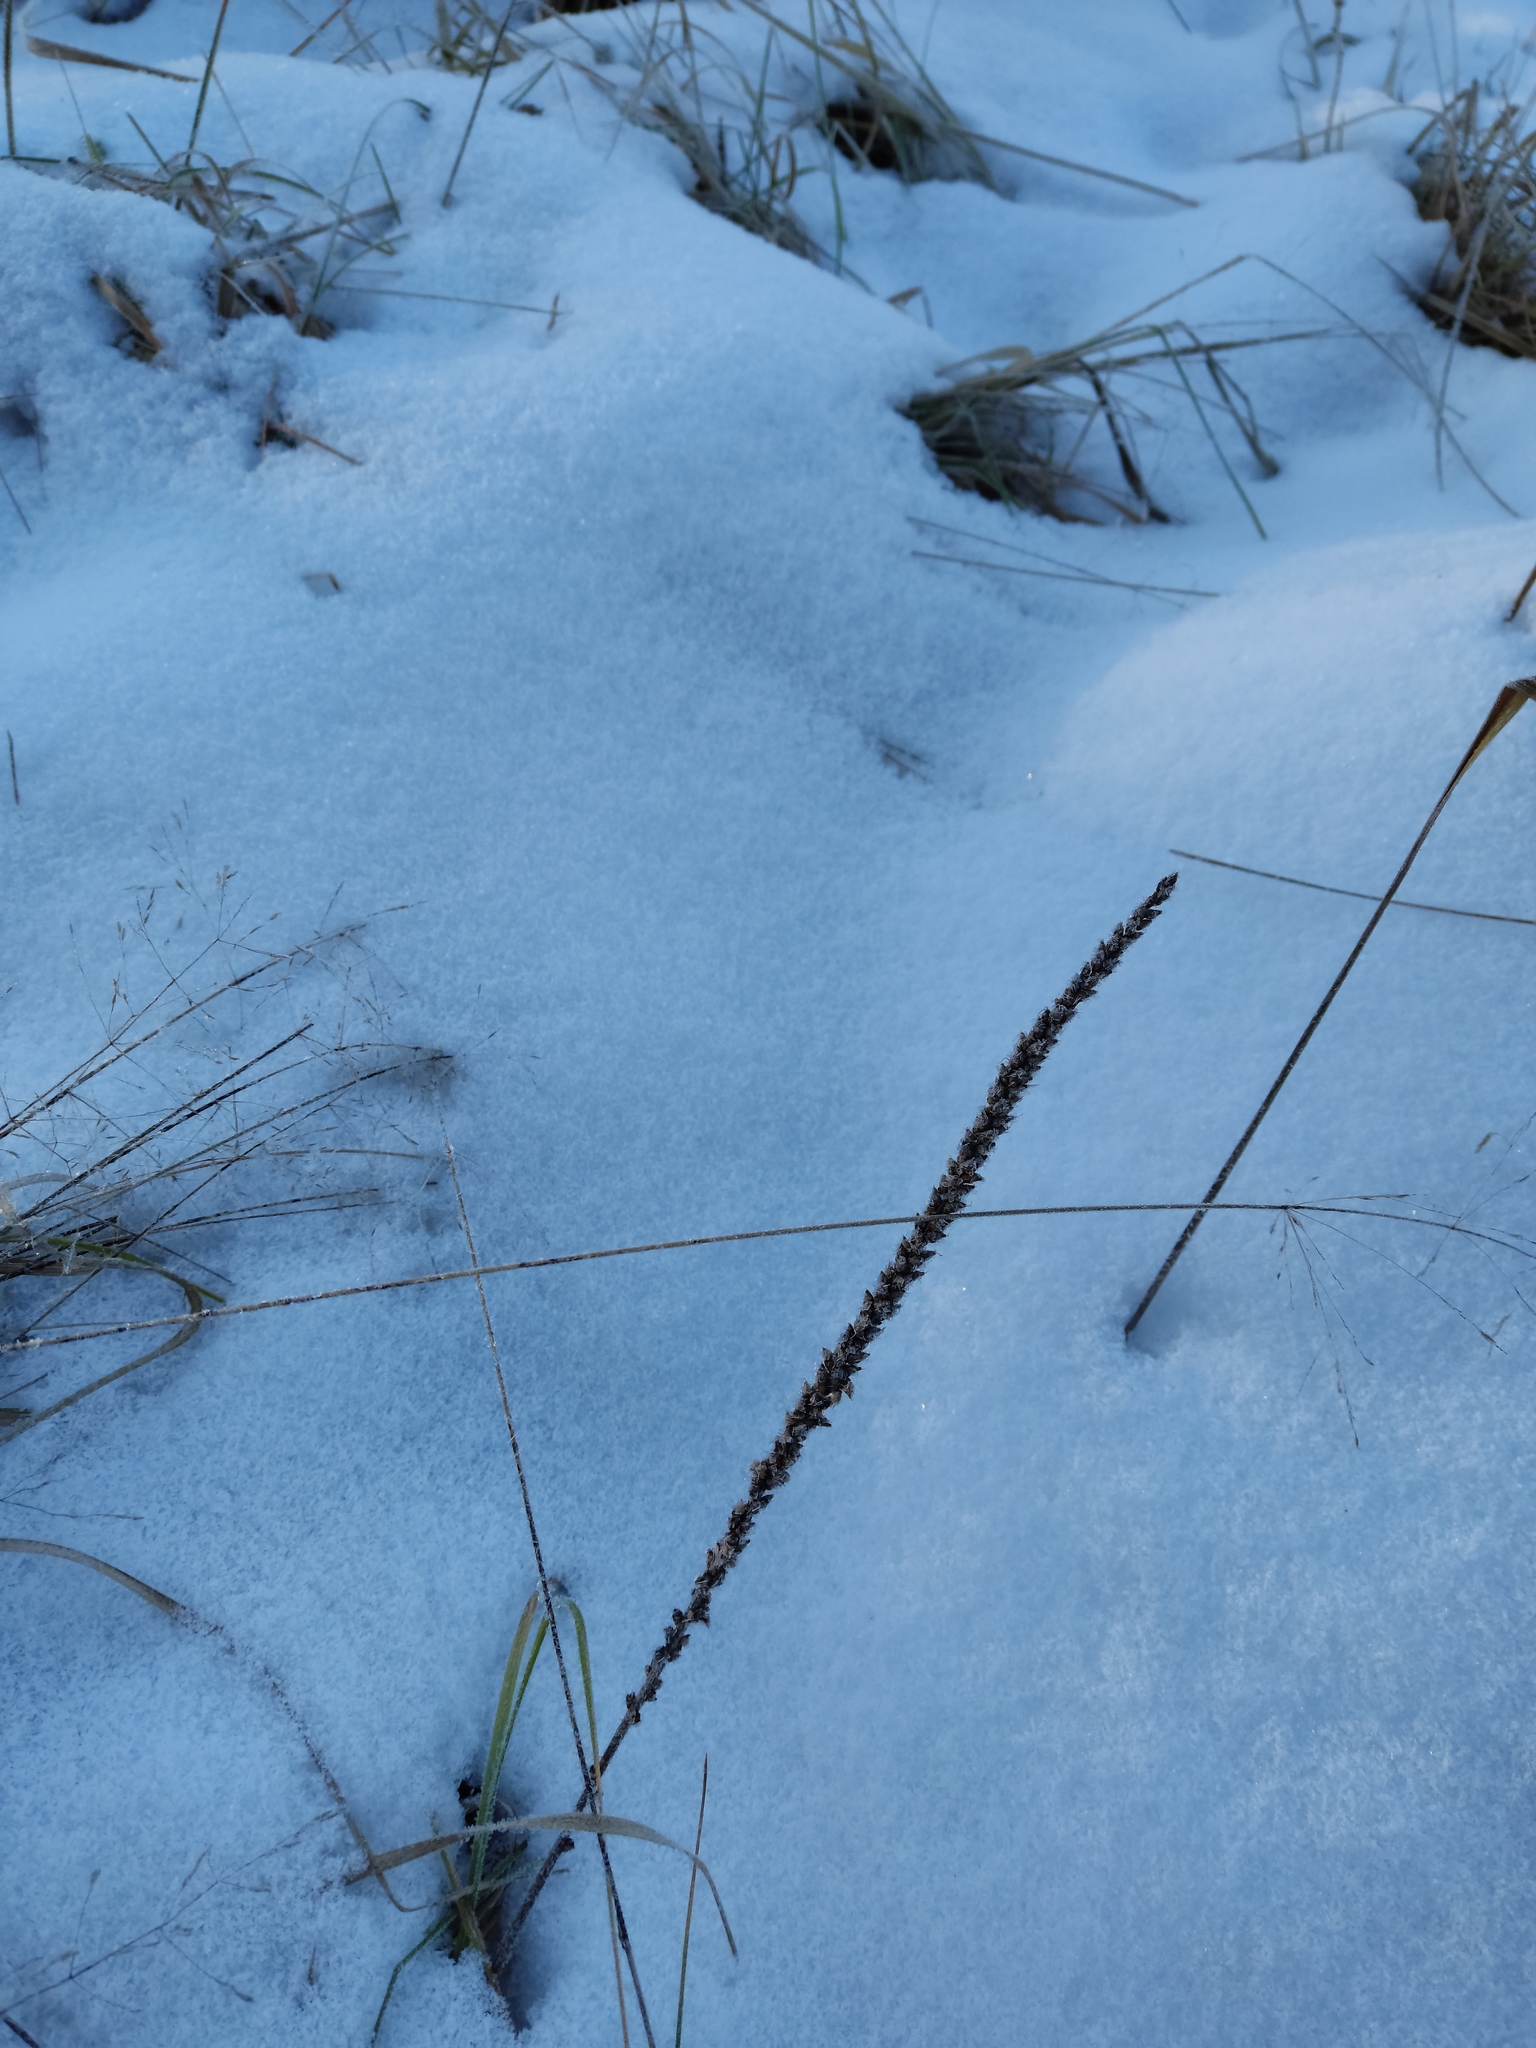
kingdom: Plantae
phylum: Tracheophyta
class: Magnoliopsida
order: Lamiales
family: Plantaginaceae
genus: Plantago
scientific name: Plantago major
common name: Common plantain
